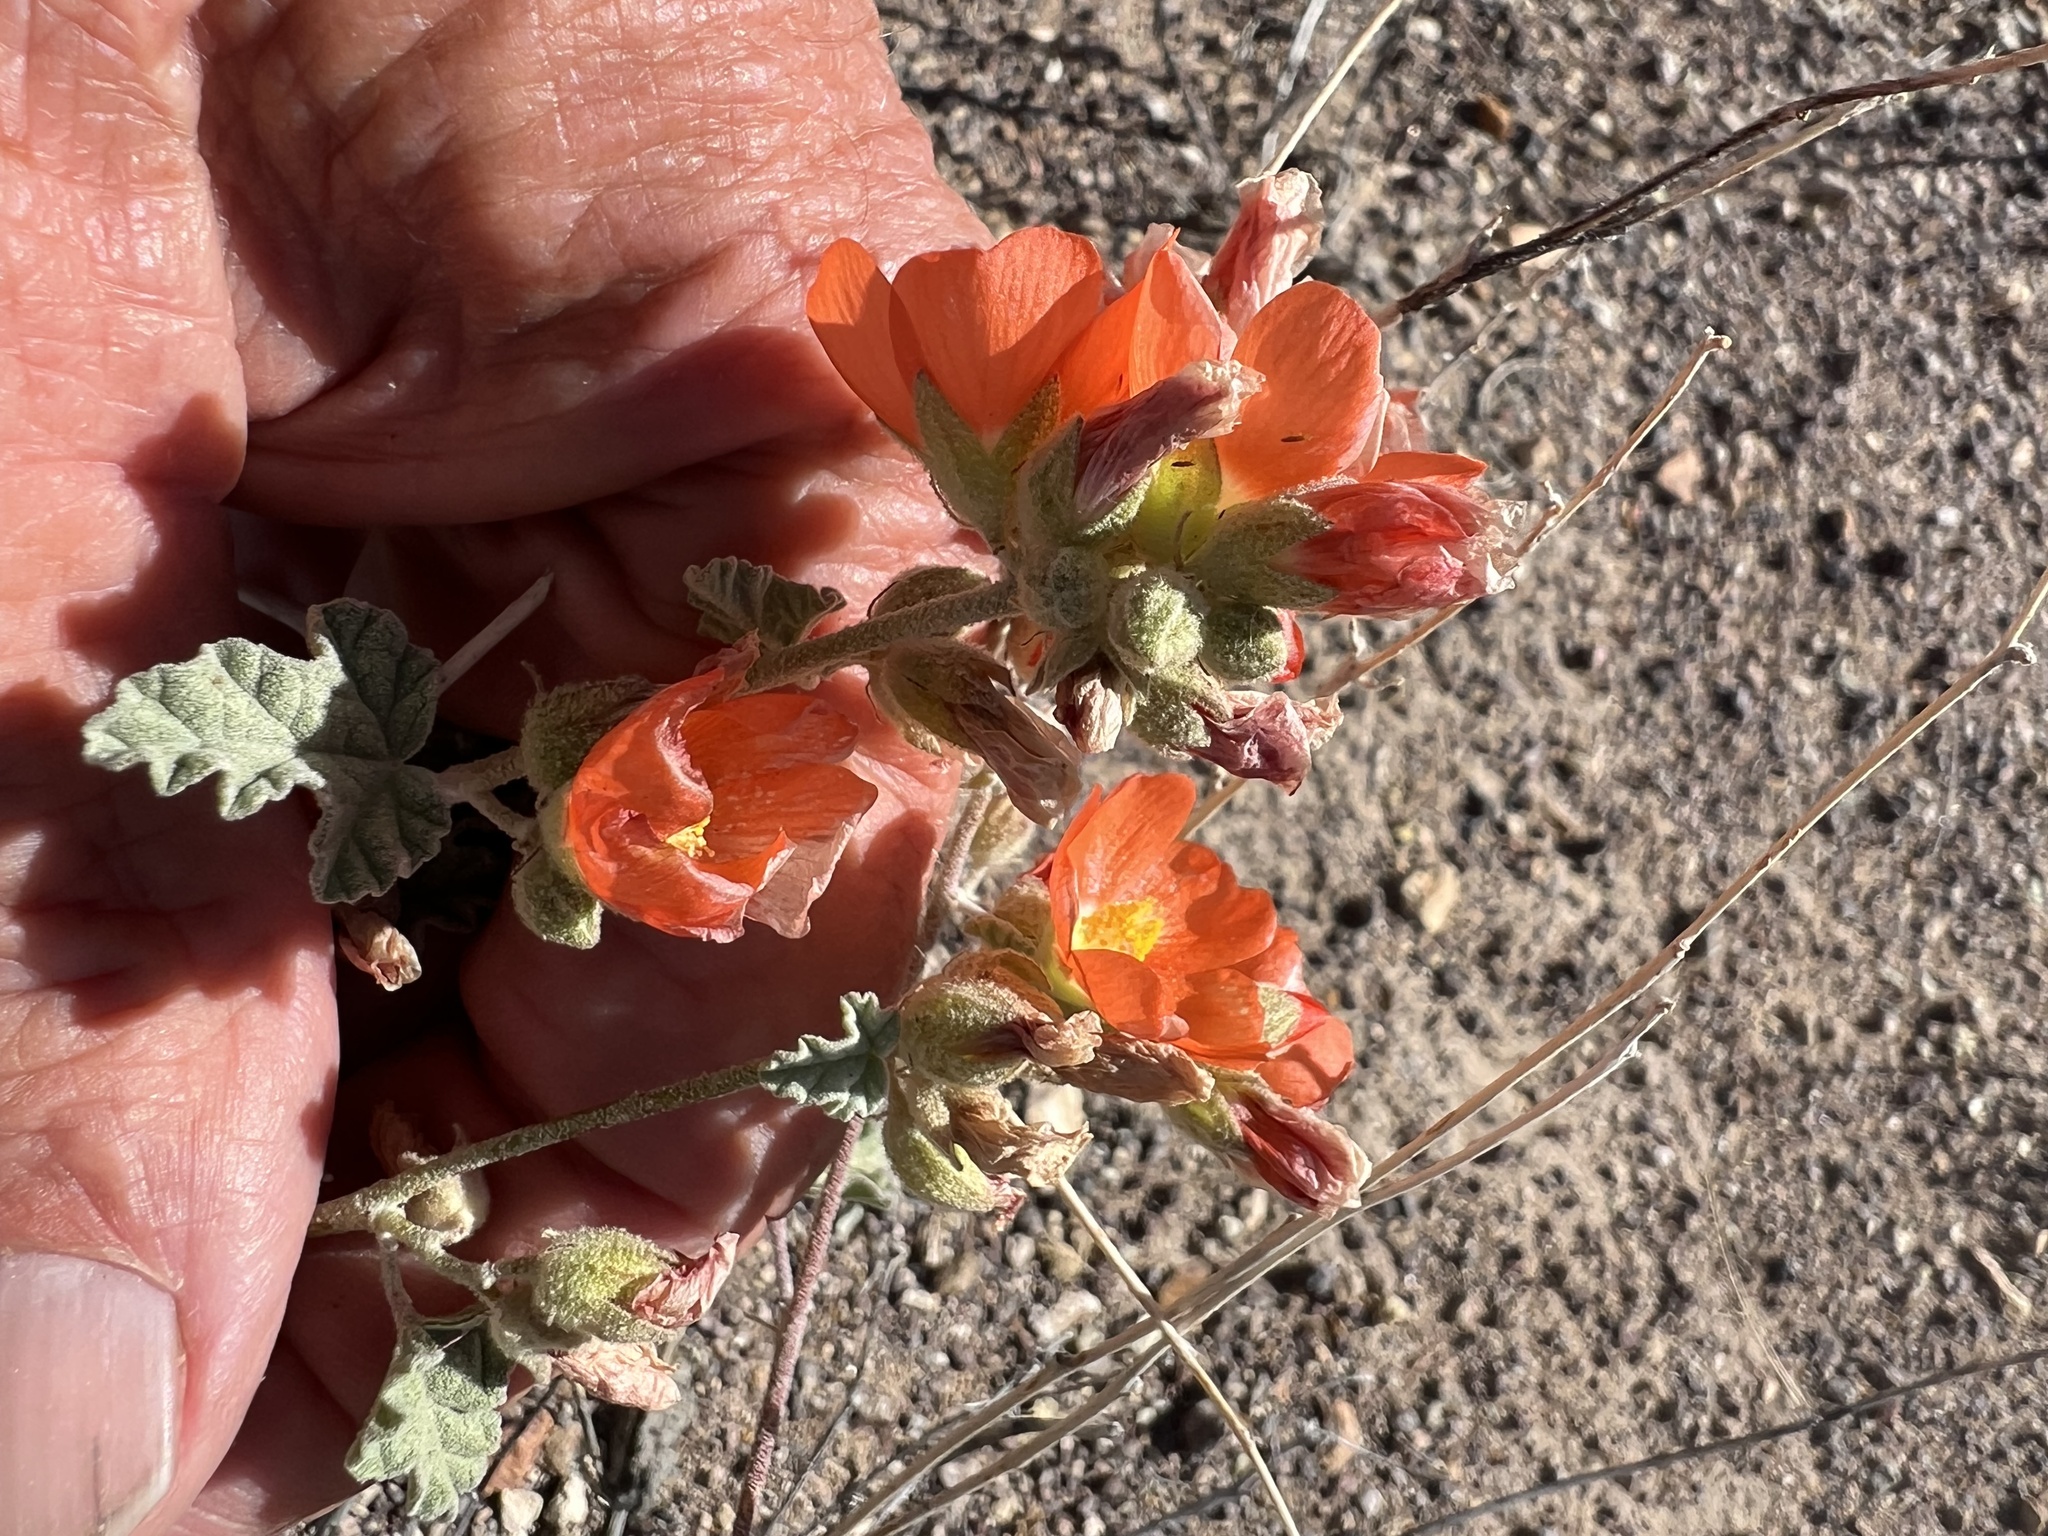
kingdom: Plantae
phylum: Tracheophyta
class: Magnoliopsida
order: Malvales
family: Malvaceae
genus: Sphaeralcea
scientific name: Sphaeralcea ambigua
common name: Apricot globe-mallow
